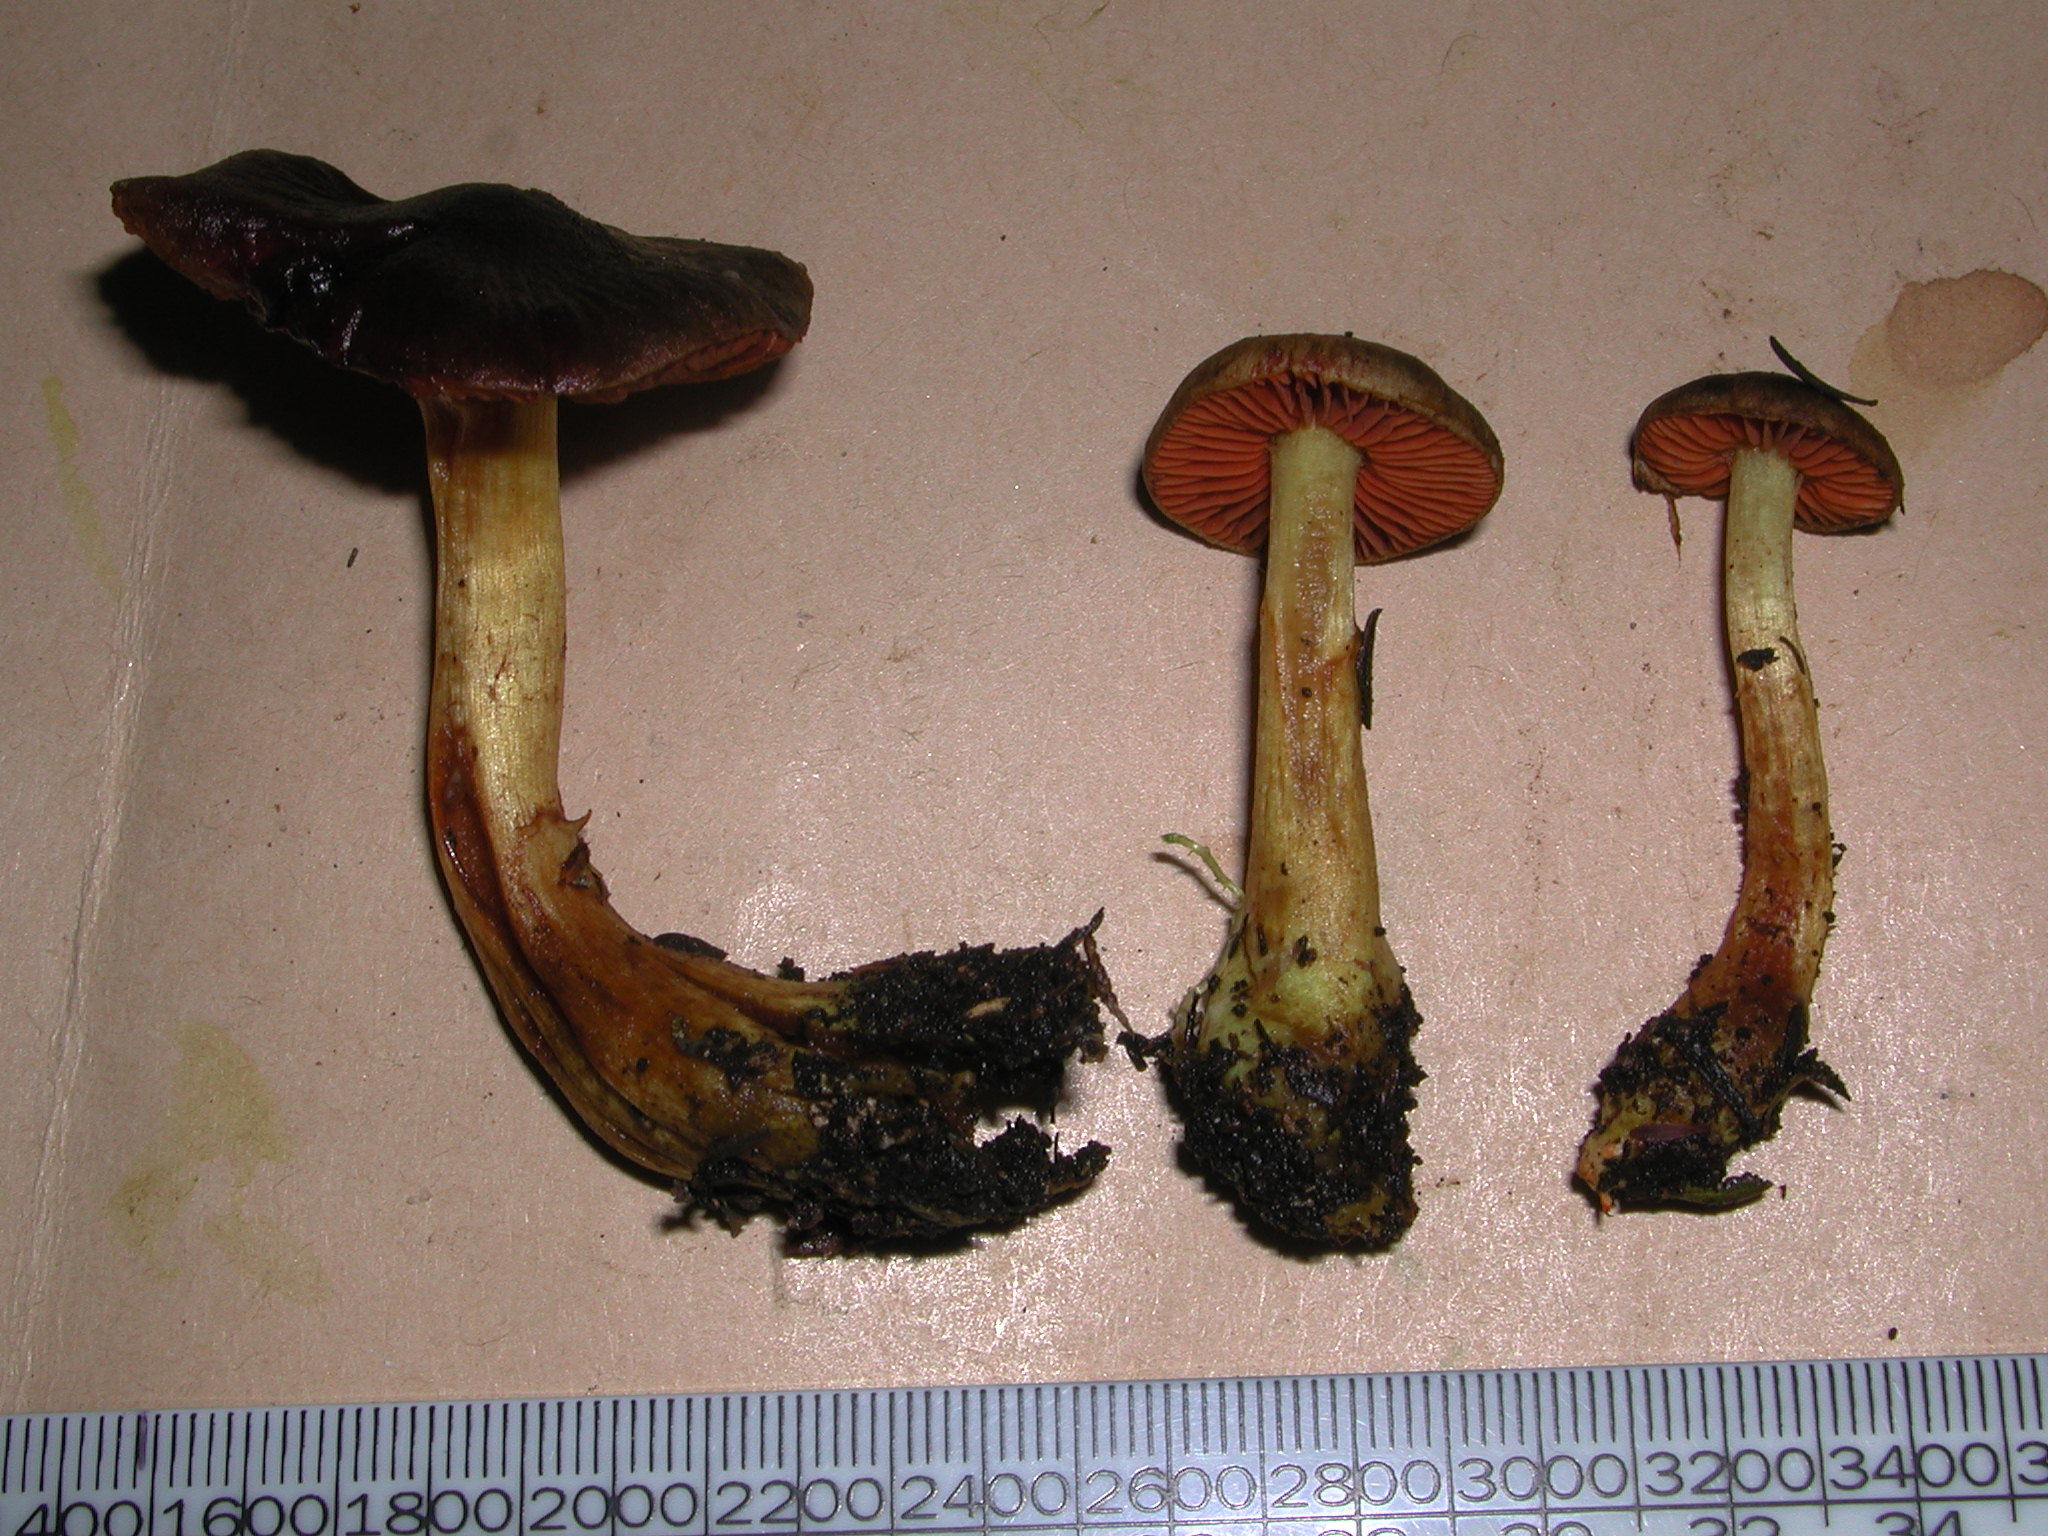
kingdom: Fungi
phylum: Basidiomycota
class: Agaricomycetes
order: Agaricales
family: Cortinariaceae
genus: Cortinarius
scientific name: Cortinarius persplendidus
